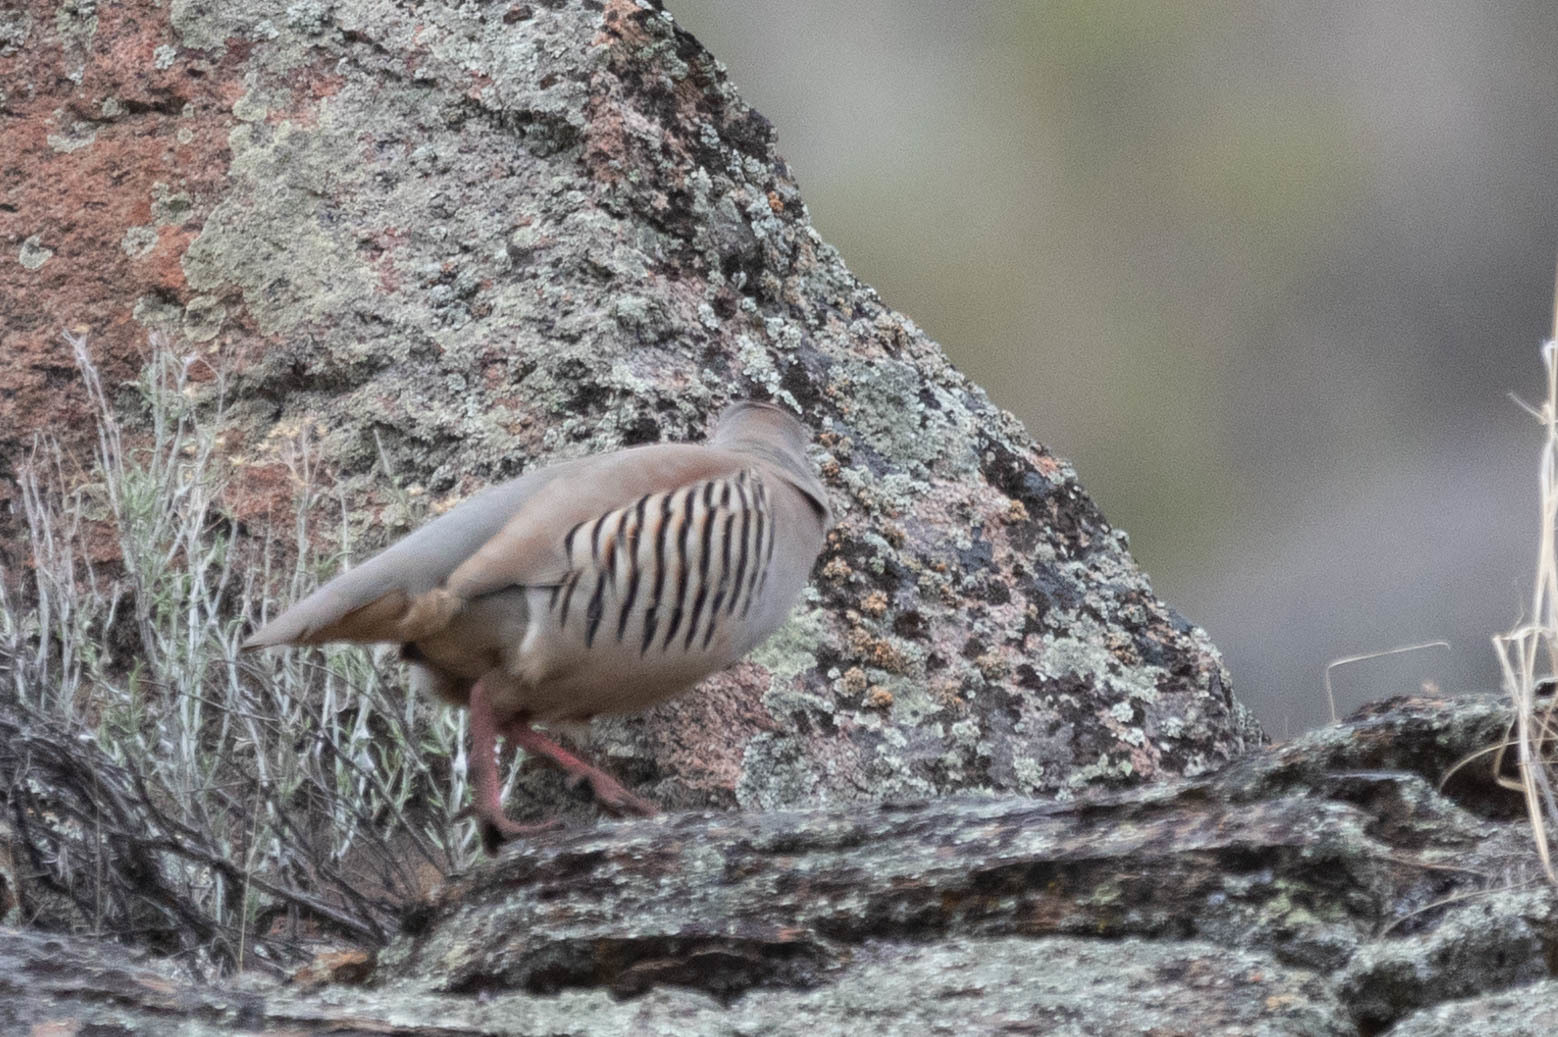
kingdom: Animalia
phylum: Chordata
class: Aves
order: Galliformes
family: Phasianidae
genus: Alectoris
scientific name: Alectoris chukar
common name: Chukar
